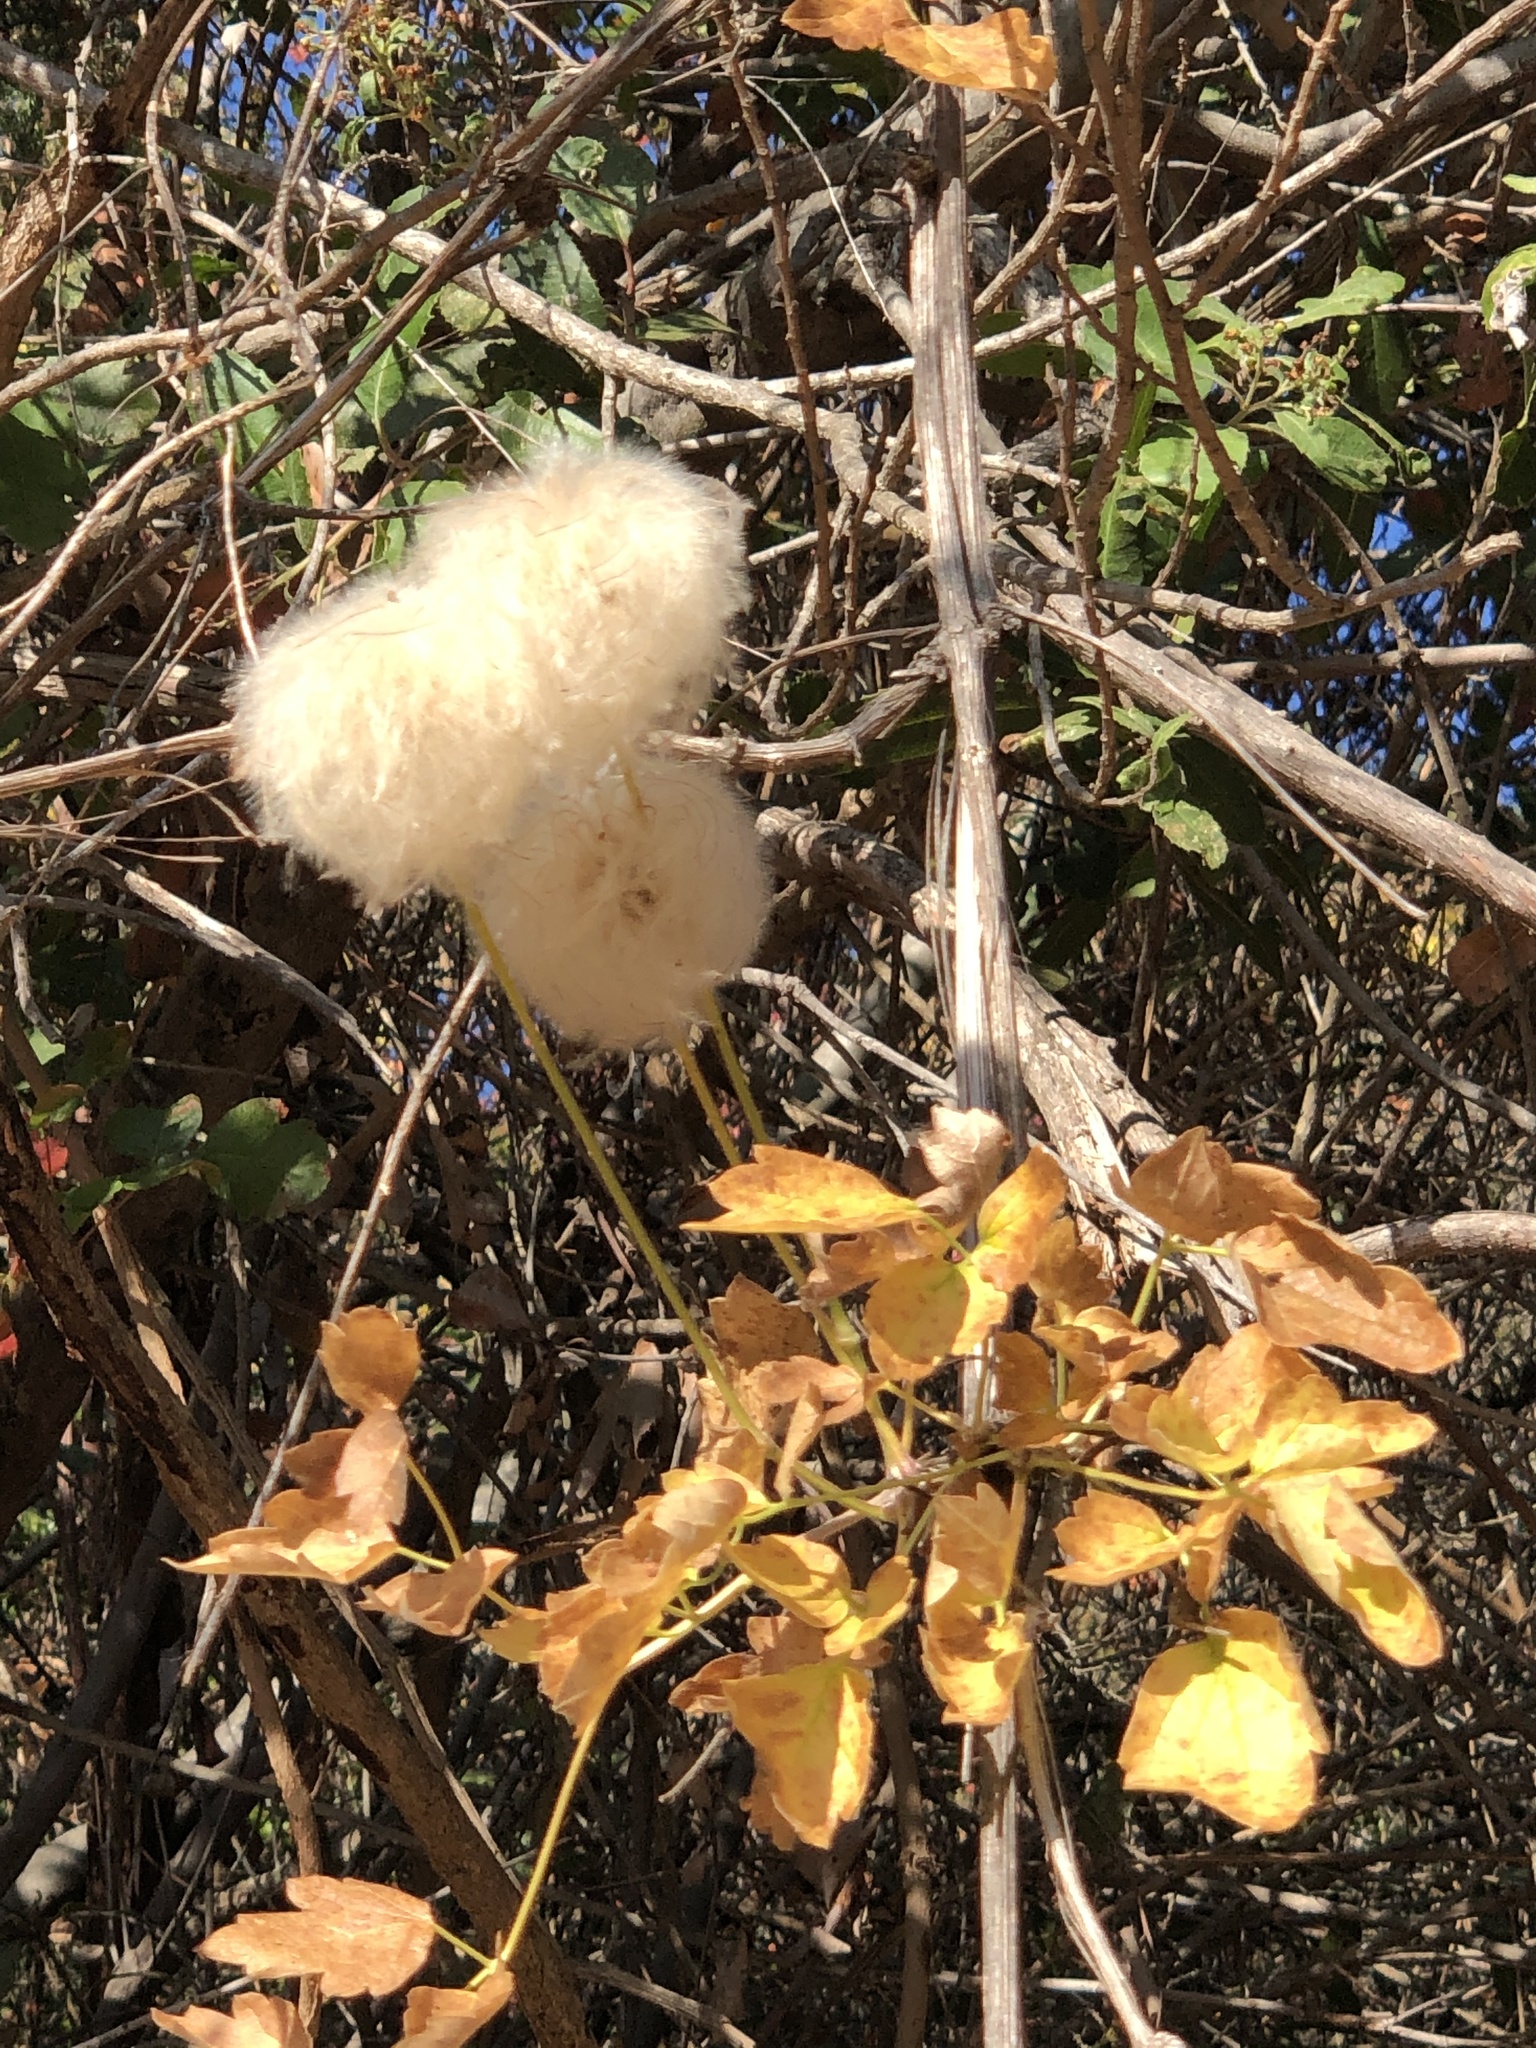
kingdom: Plantae
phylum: Tracheophyta
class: Magnoliopsida
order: Ranunculales
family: Ranunculaceae
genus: Clematis
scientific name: Clematis lasiantha
